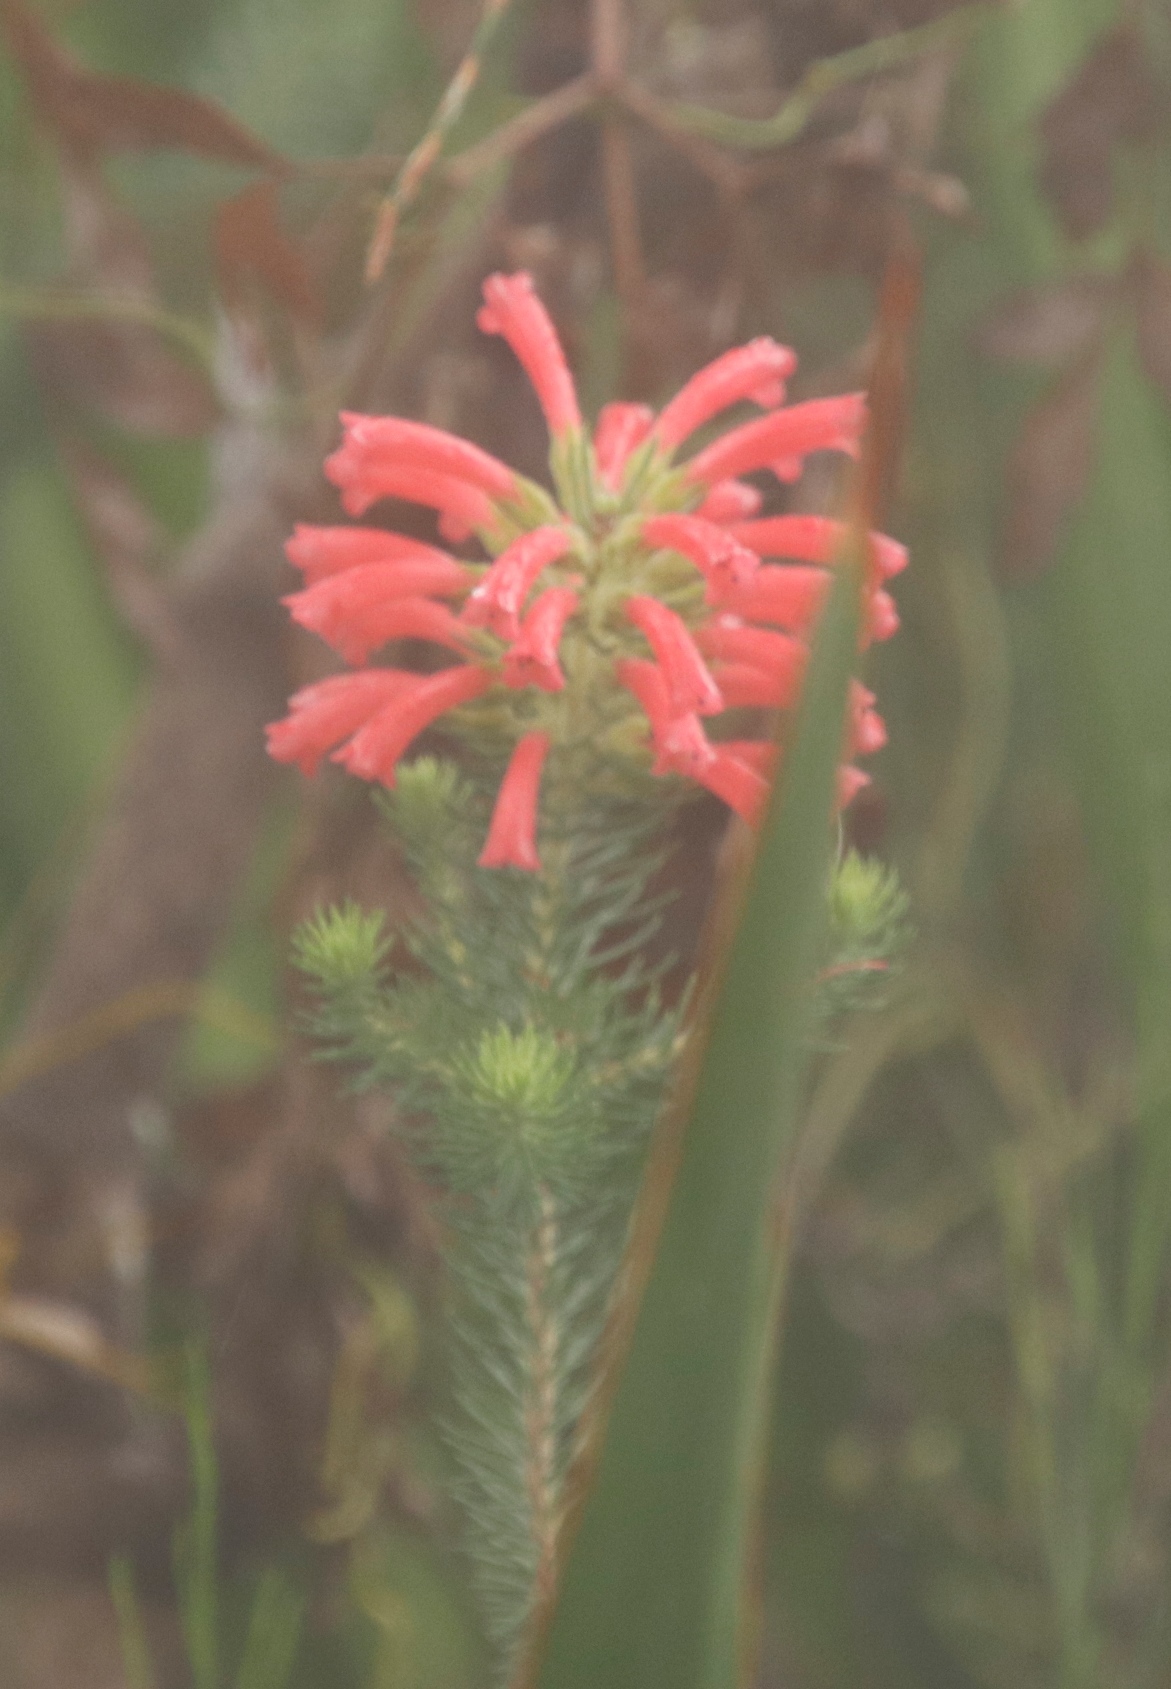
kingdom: Plantae
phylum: Tracheophyta
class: Magnoliopsida
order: Ericales
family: Ericaceae
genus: Erica
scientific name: Erica abietina
